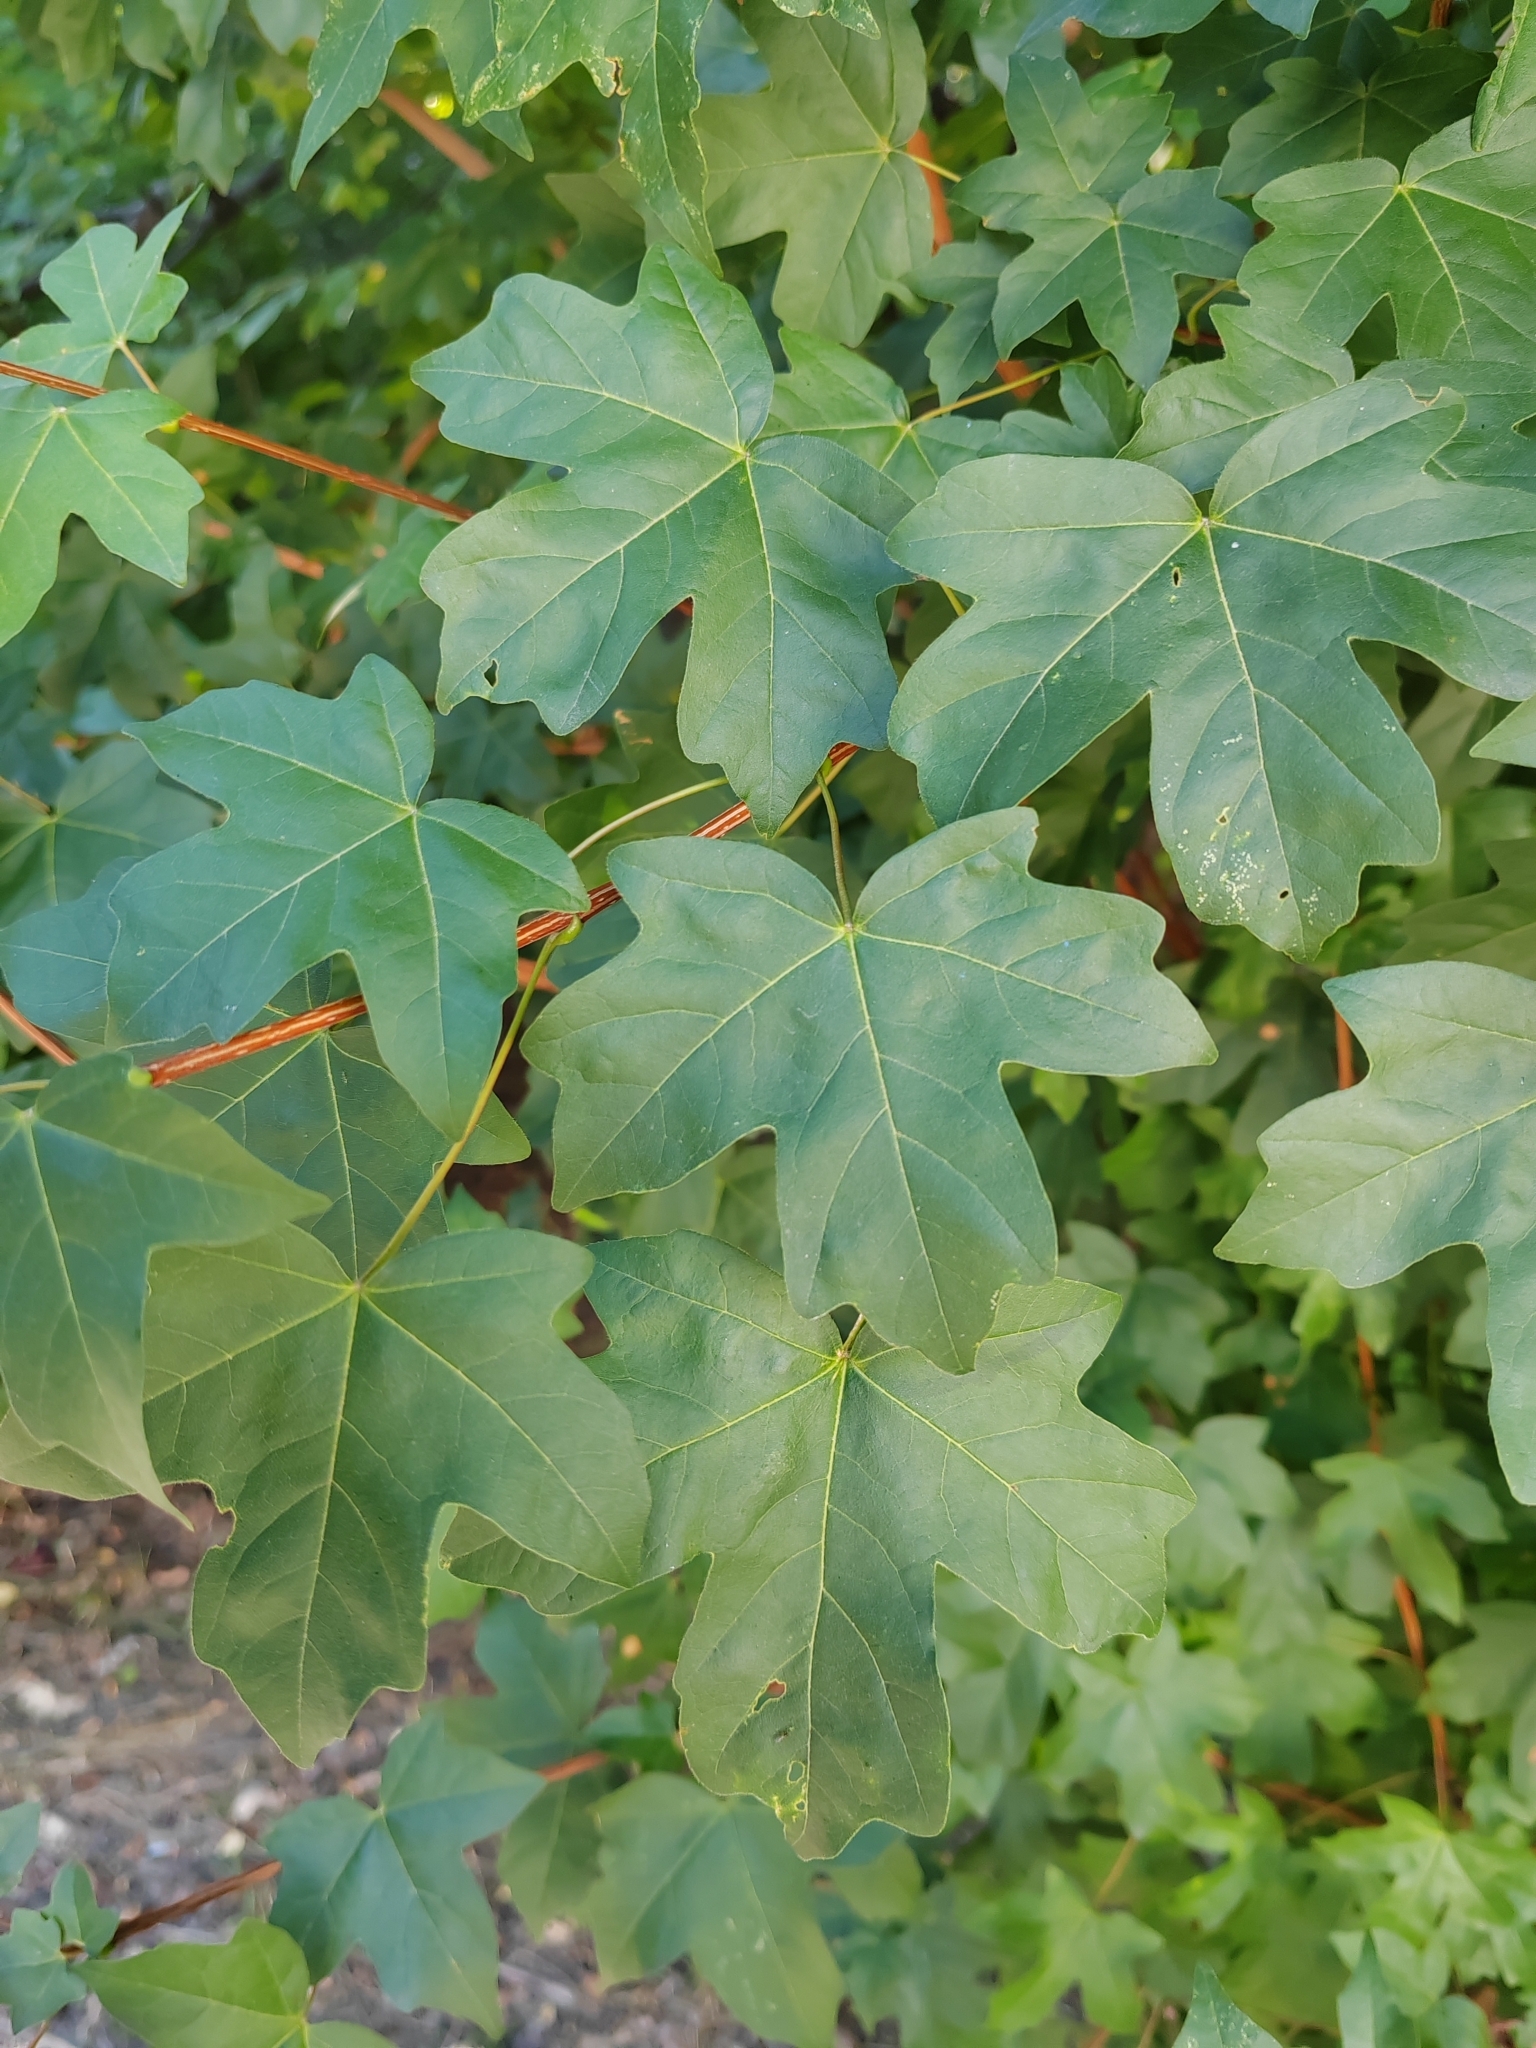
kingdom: Plantae
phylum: Tracheophyta
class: Magnoliopsida
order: Sapindales
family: Sapindaceae
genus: Acer
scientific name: Acer campestre
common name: Field maple
